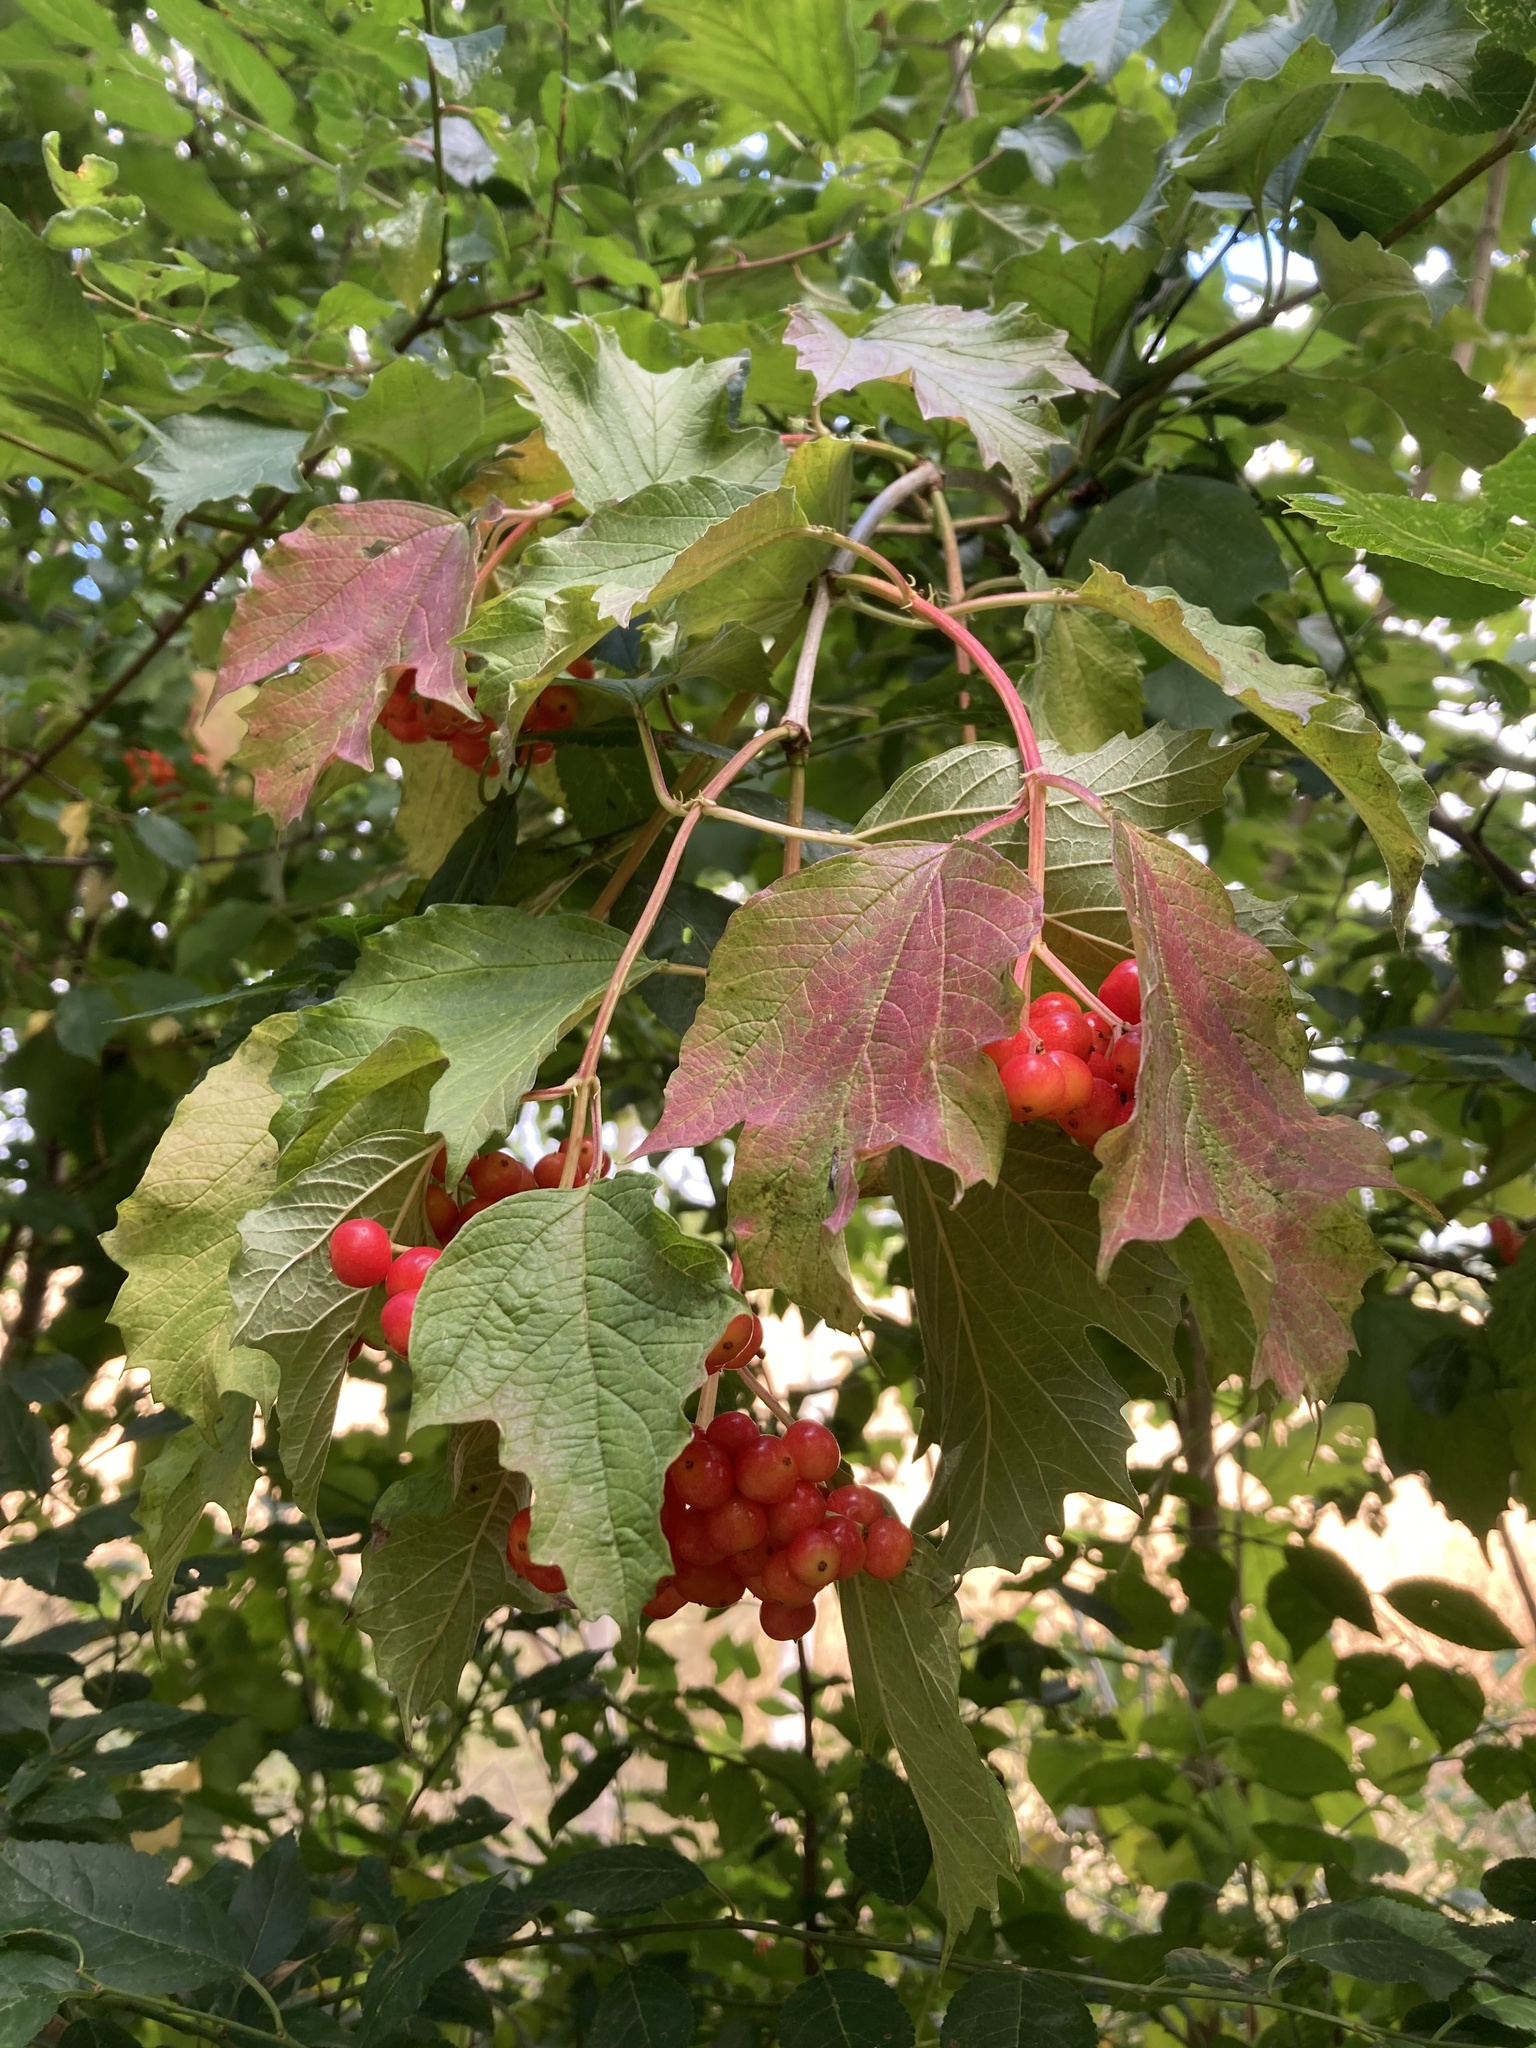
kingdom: Plantae
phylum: Tracheophyta
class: Magnoliopsida
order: Dipsacales
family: Viburnaceae
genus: Viburnum
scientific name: Viburnum opulus
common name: Guelder-rose
